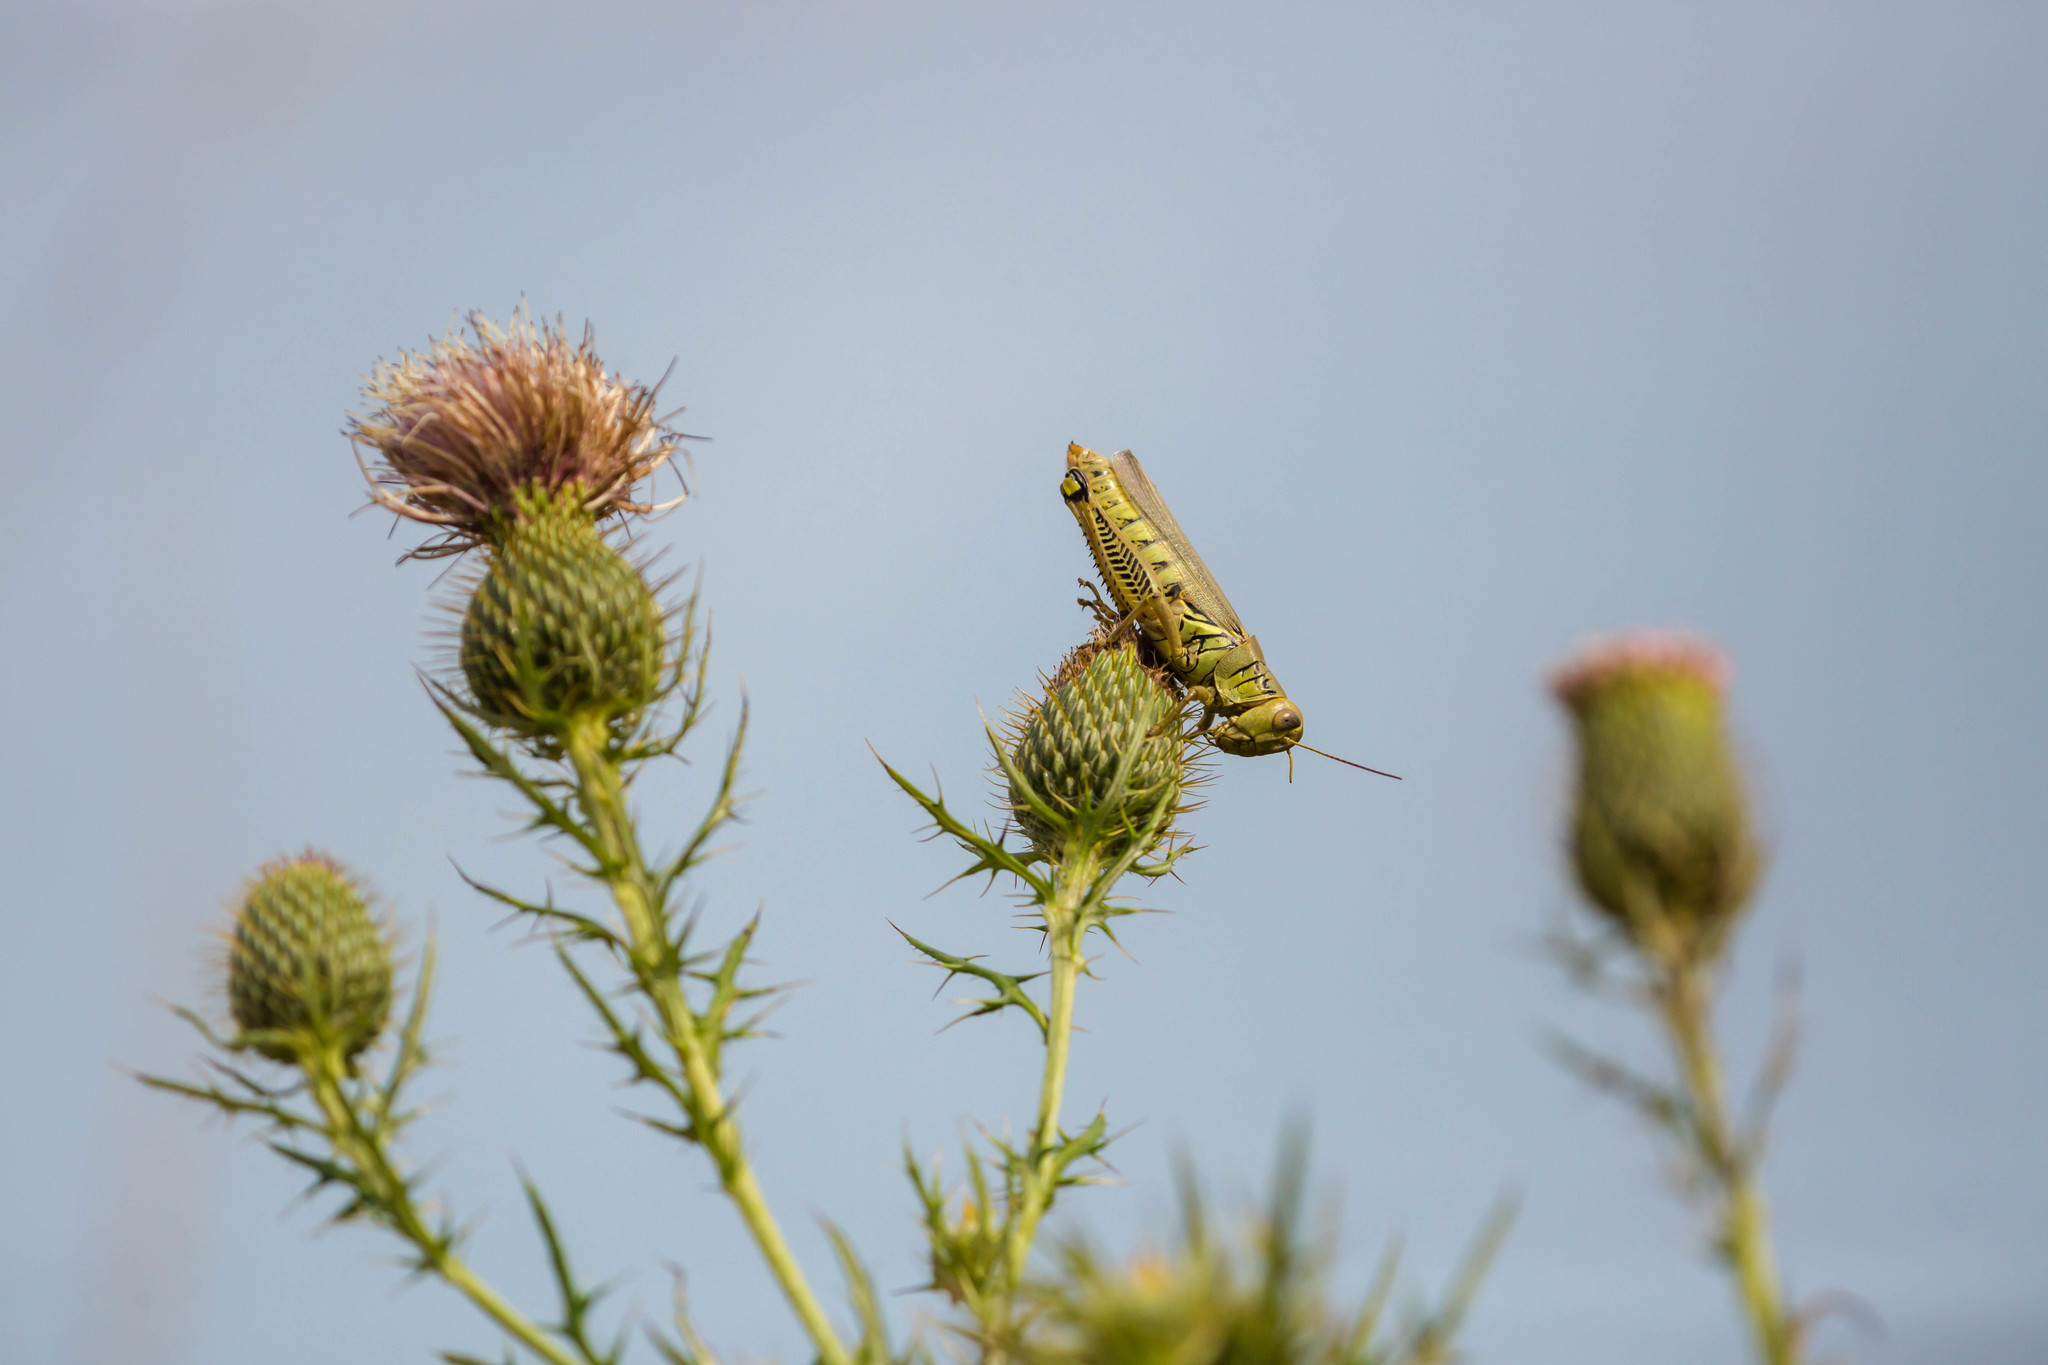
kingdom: Animalia
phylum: Arthropoda
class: Insecta
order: Orthoptera
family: Acrididae
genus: Melanoplus
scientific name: Melanoplus differentialis
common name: Differential grasshopper
